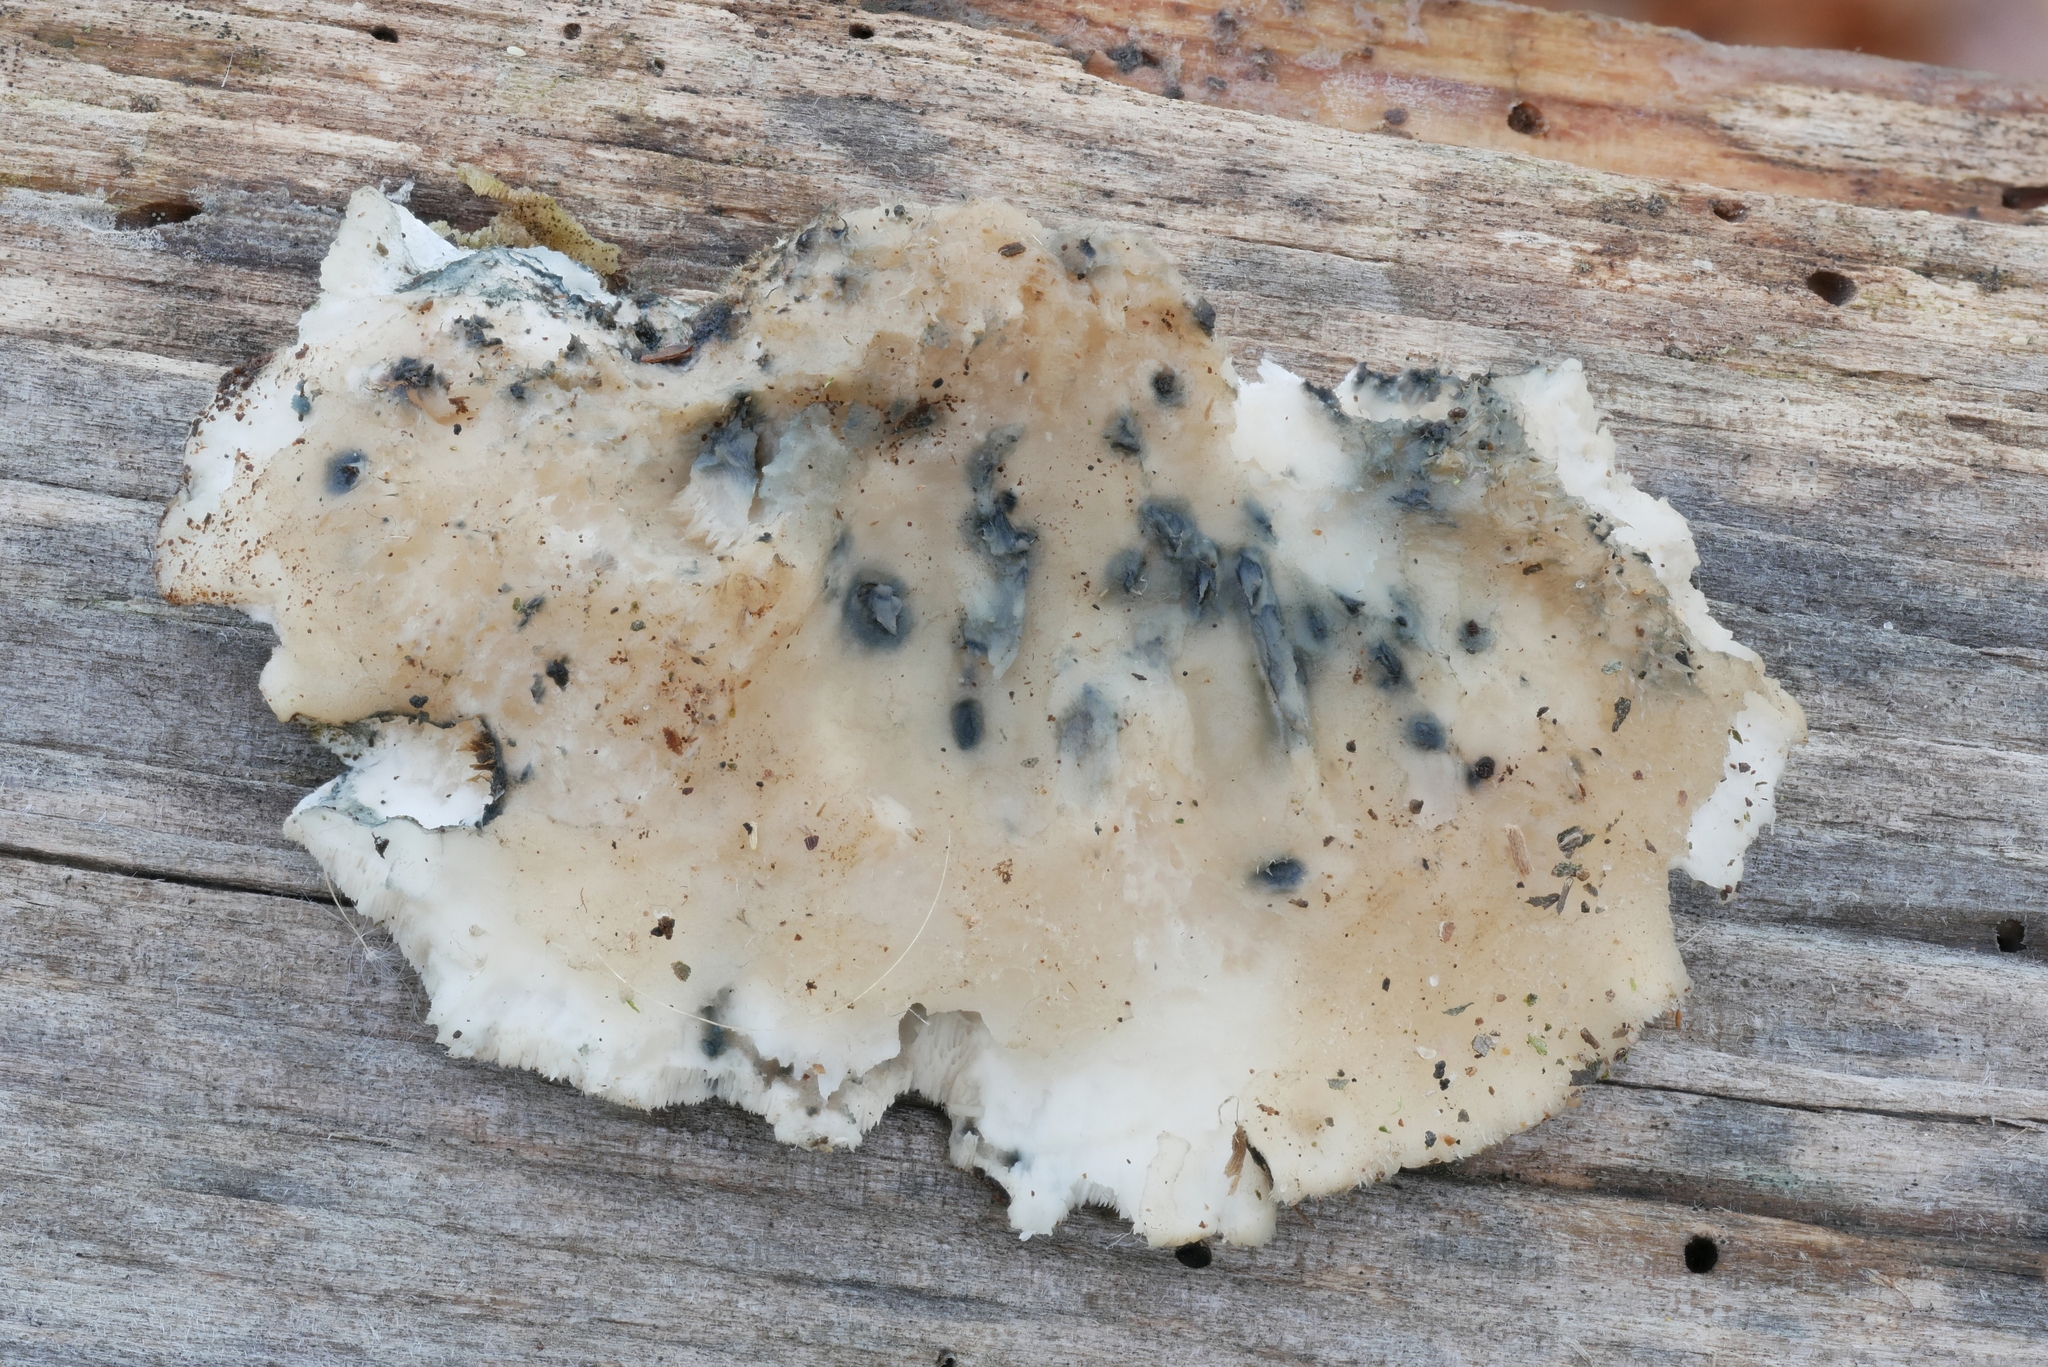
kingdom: Fungi
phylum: Basidiomycota
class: Agaricomycetes
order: Polyporales
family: Polyporaceae
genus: Cyanosporus
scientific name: Cyanosporus livens
